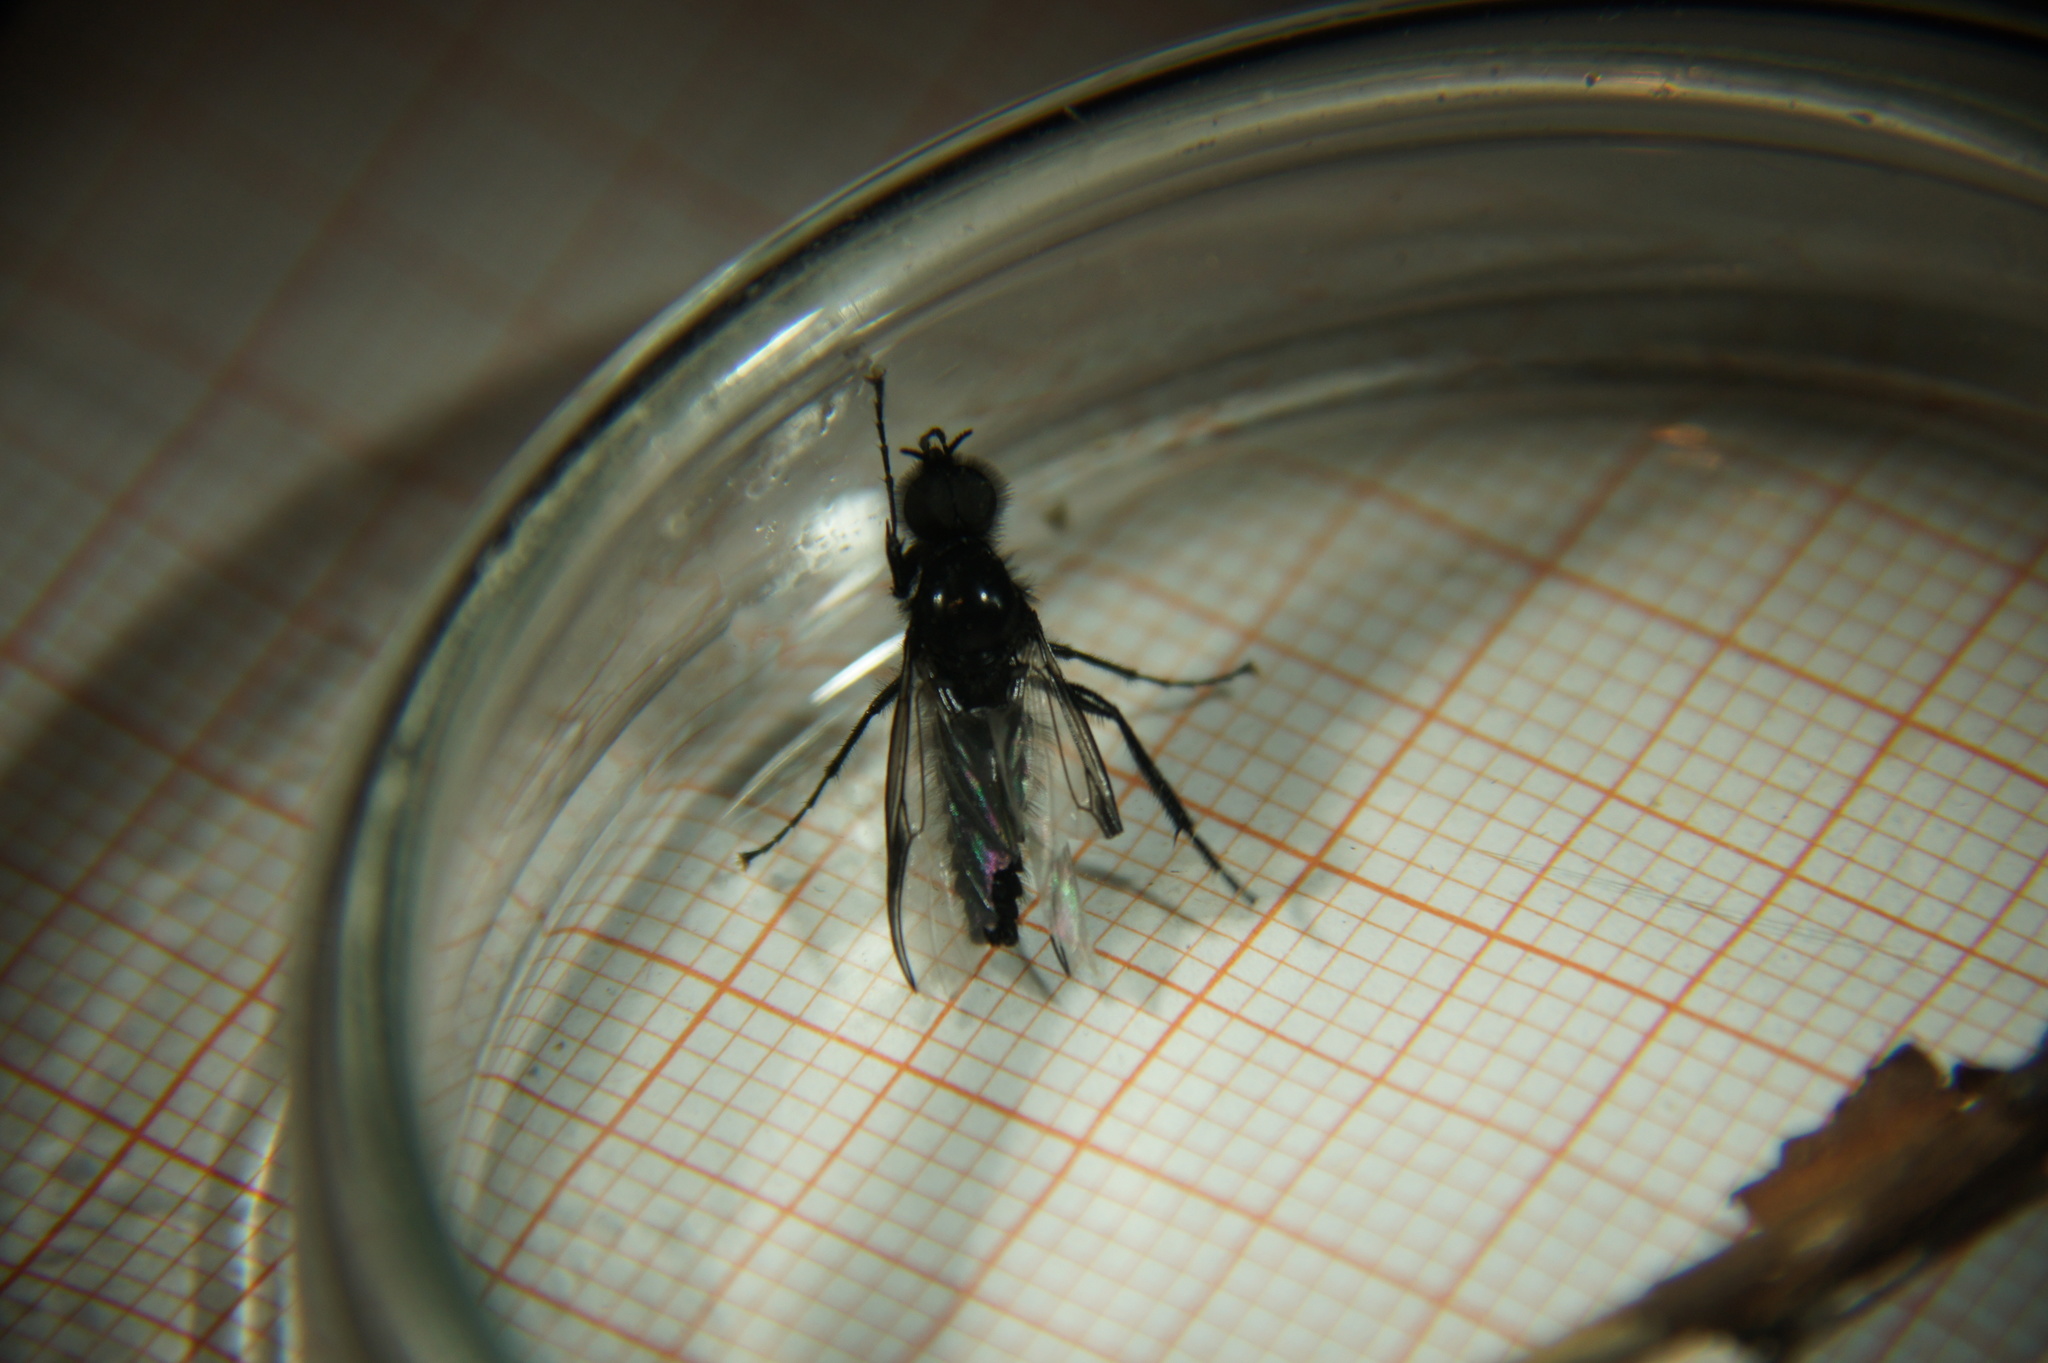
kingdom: Animalia
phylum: Arthropoda
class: Insecta
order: Diptera
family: Bibionidae
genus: Bibio
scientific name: Bibio marci
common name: St marks fly
